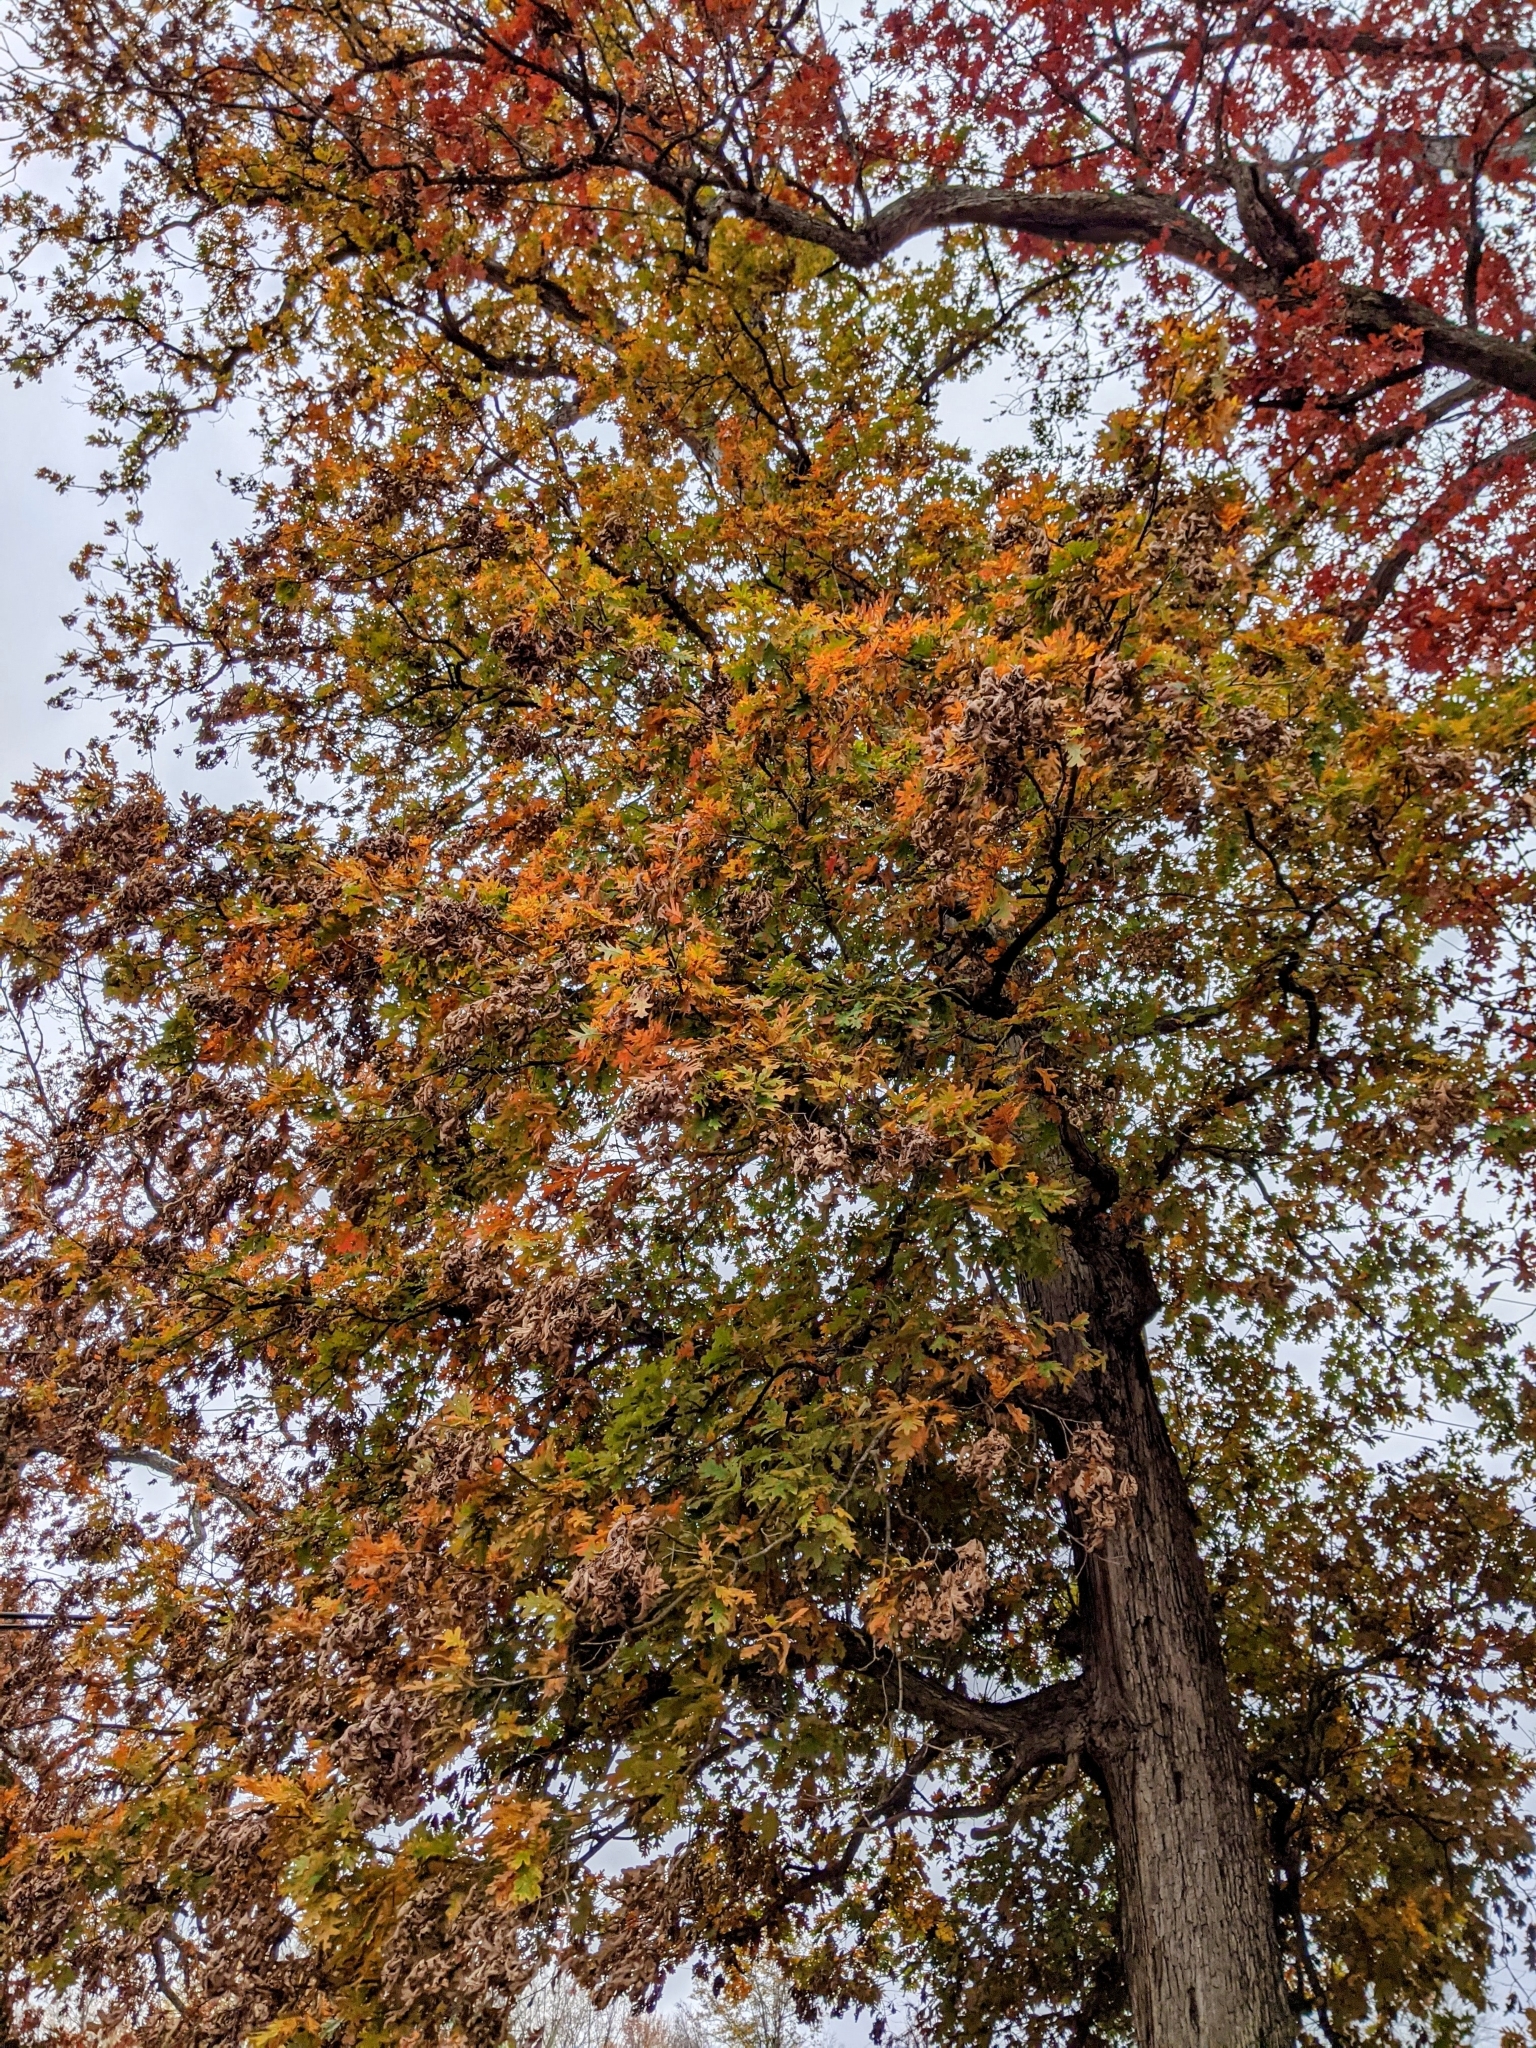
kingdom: Plantae
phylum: Tracheophyta
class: Magnoliopsida
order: Fagales
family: Fagaceae
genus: Quercus
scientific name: Quercus alba
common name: White oak
